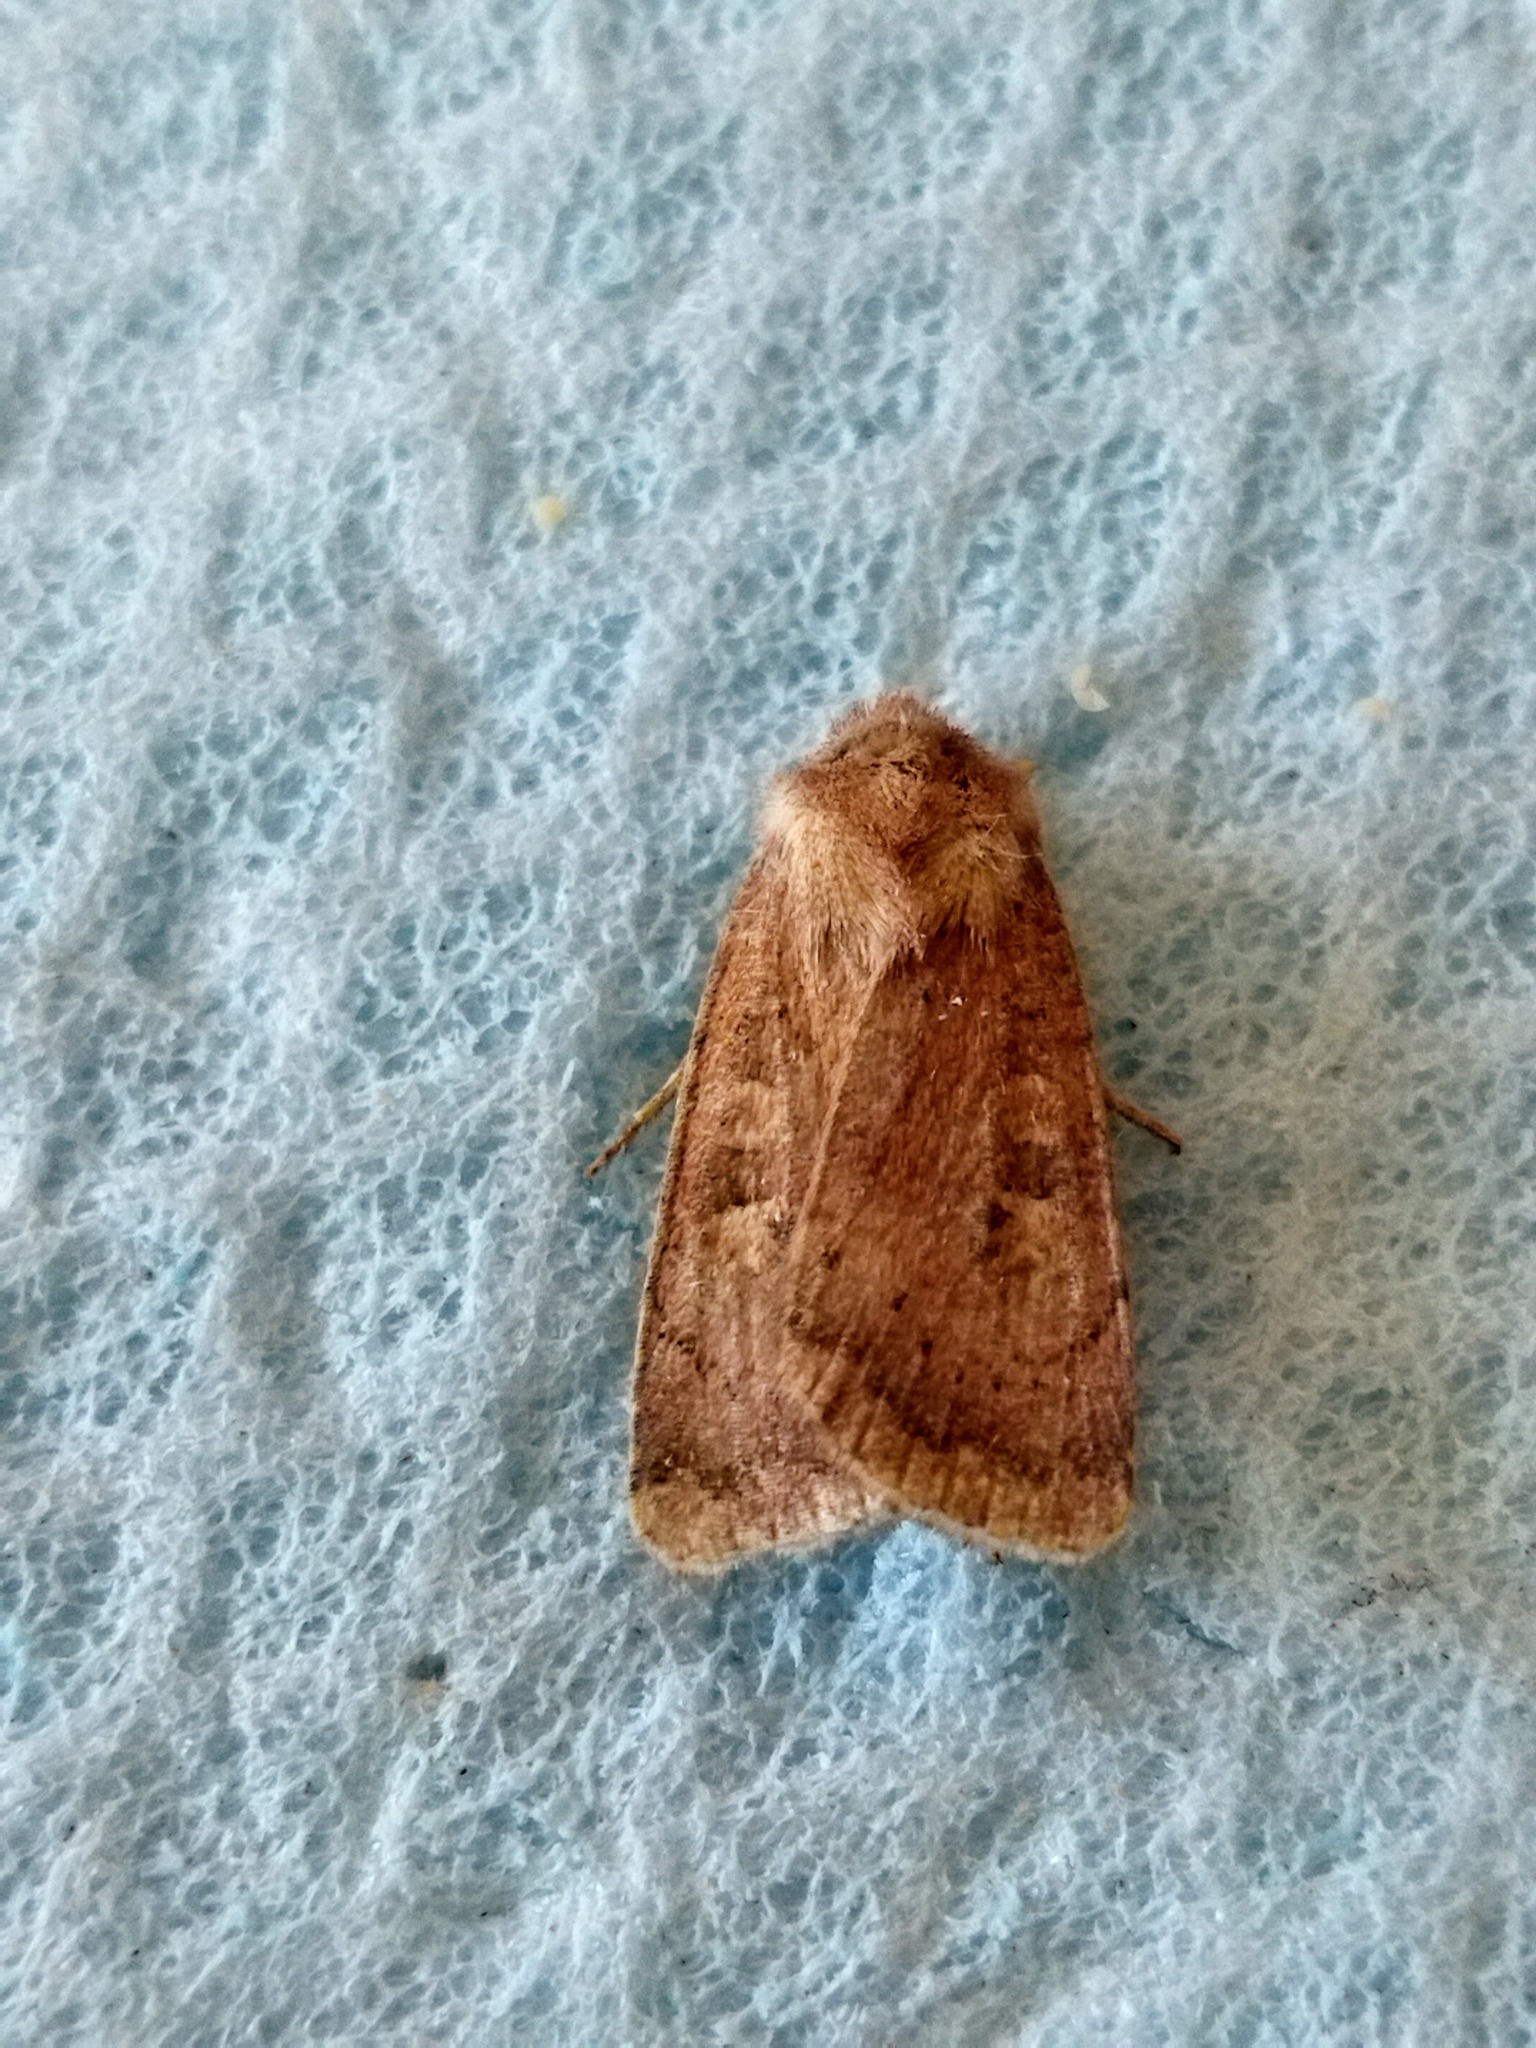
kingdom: Animalia
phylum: Arthropoda
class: Insecta
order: Lepidoptera
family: Noctuidae
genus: Xestia
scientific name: Xestia xanthographa
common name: Square-spot rustic
